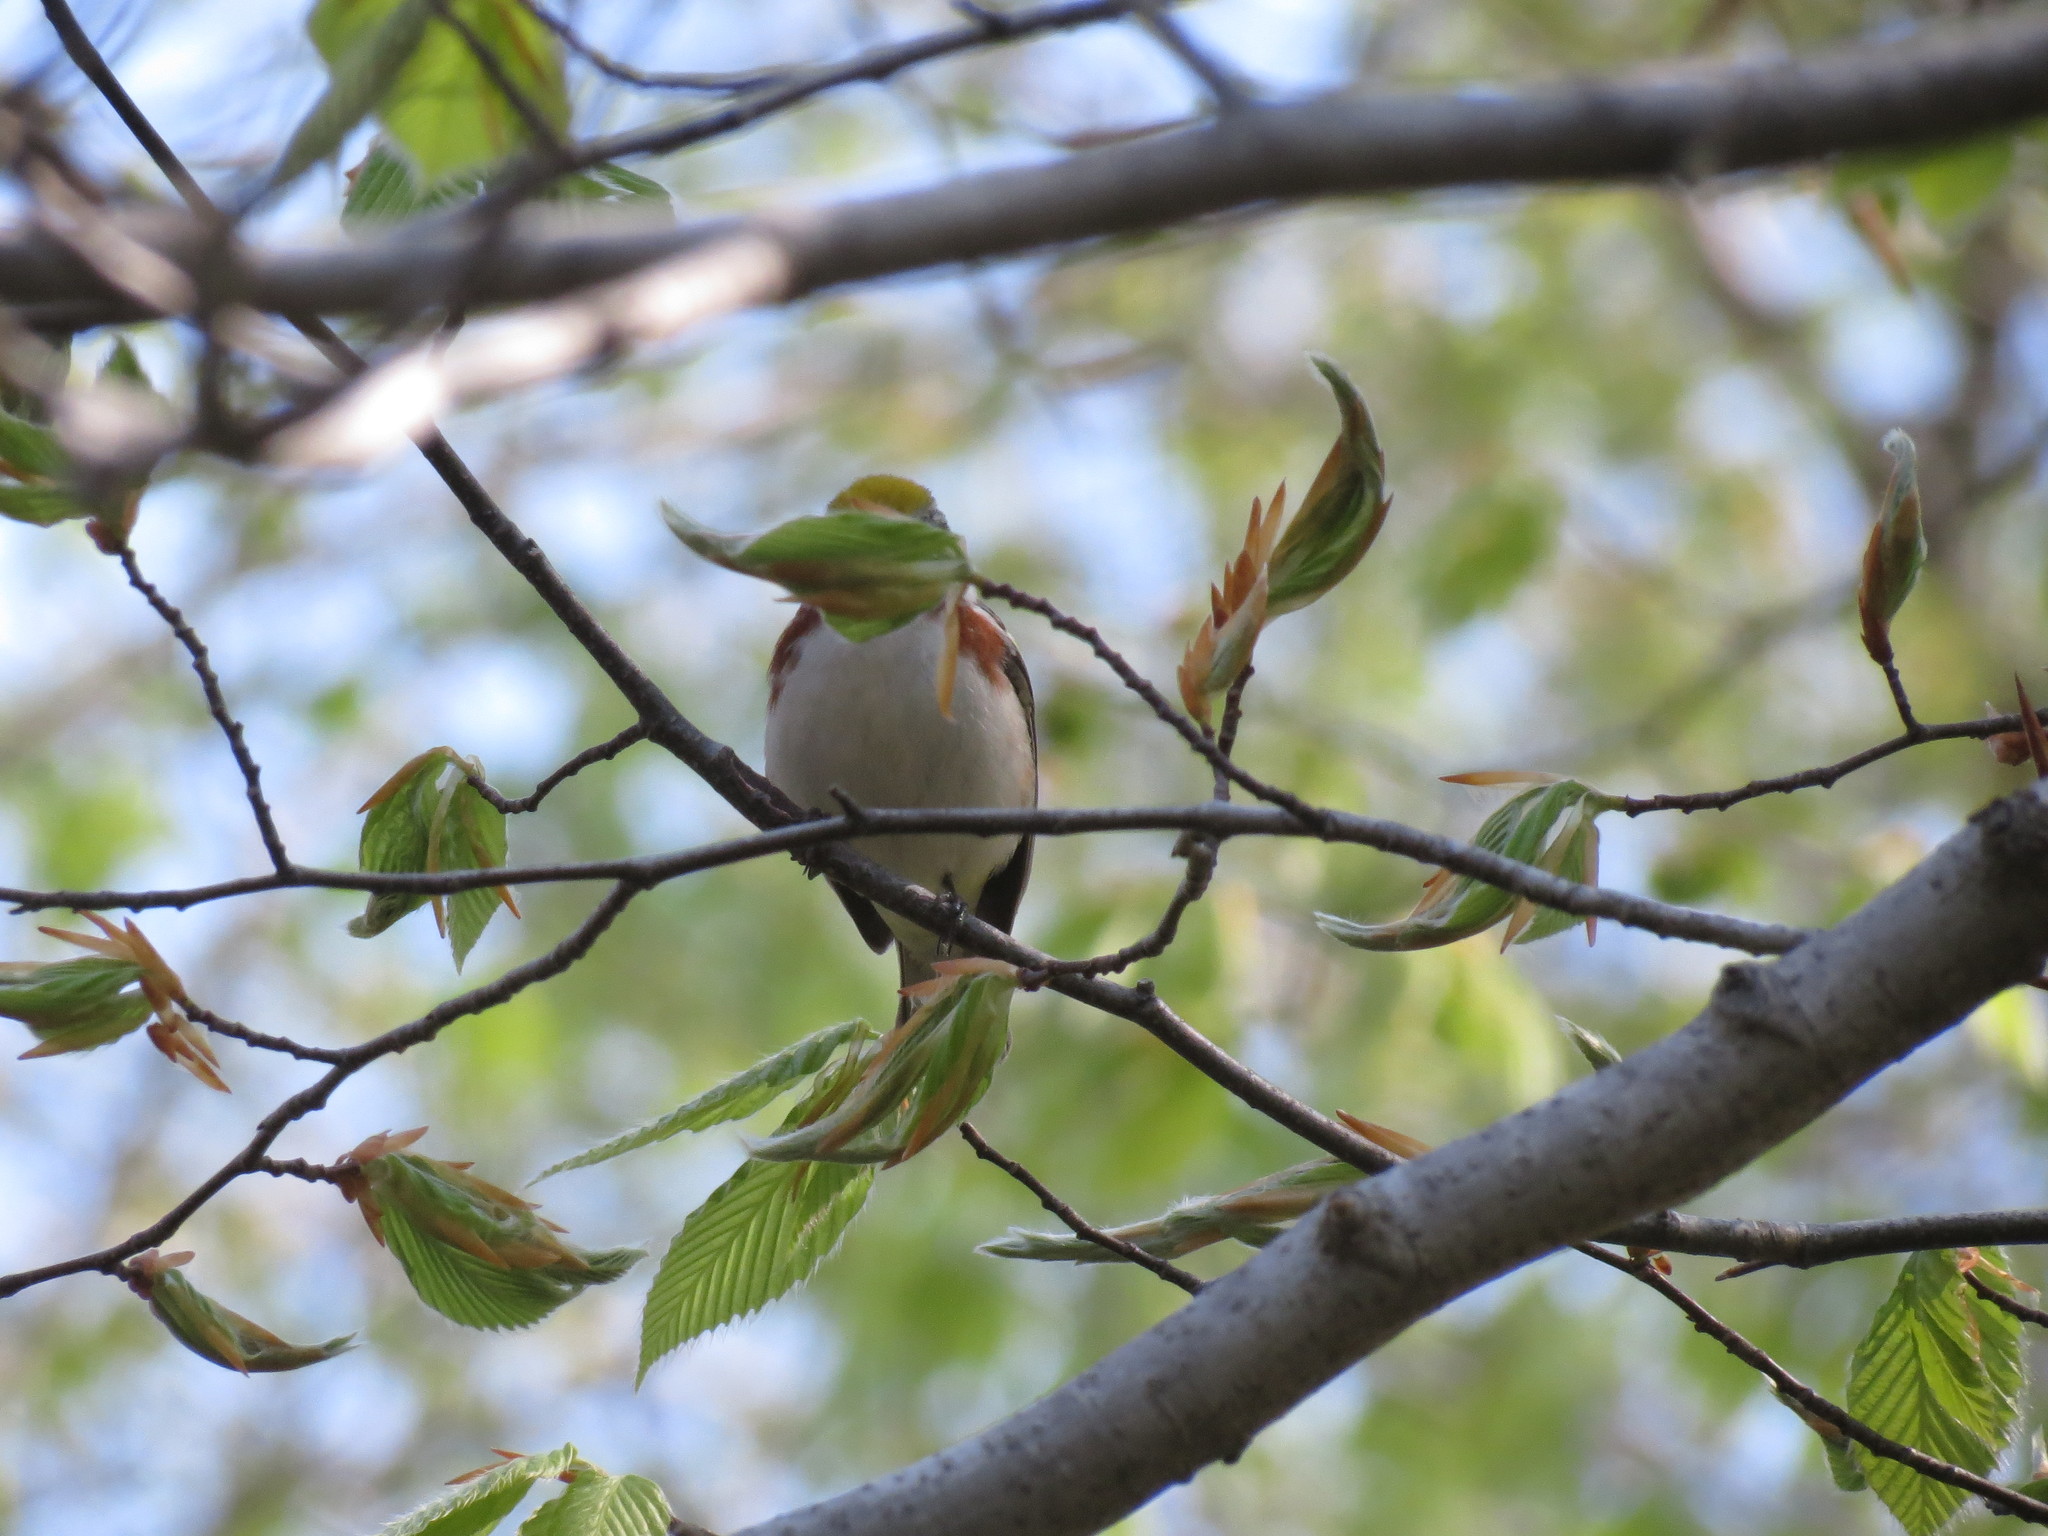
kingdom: Animalia
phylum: Chordata
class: Aves
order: Passeriformes
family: Parulidae
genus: Setophaga
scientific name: Setophaga pensylvanica
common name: Chestnut-sided warbler
